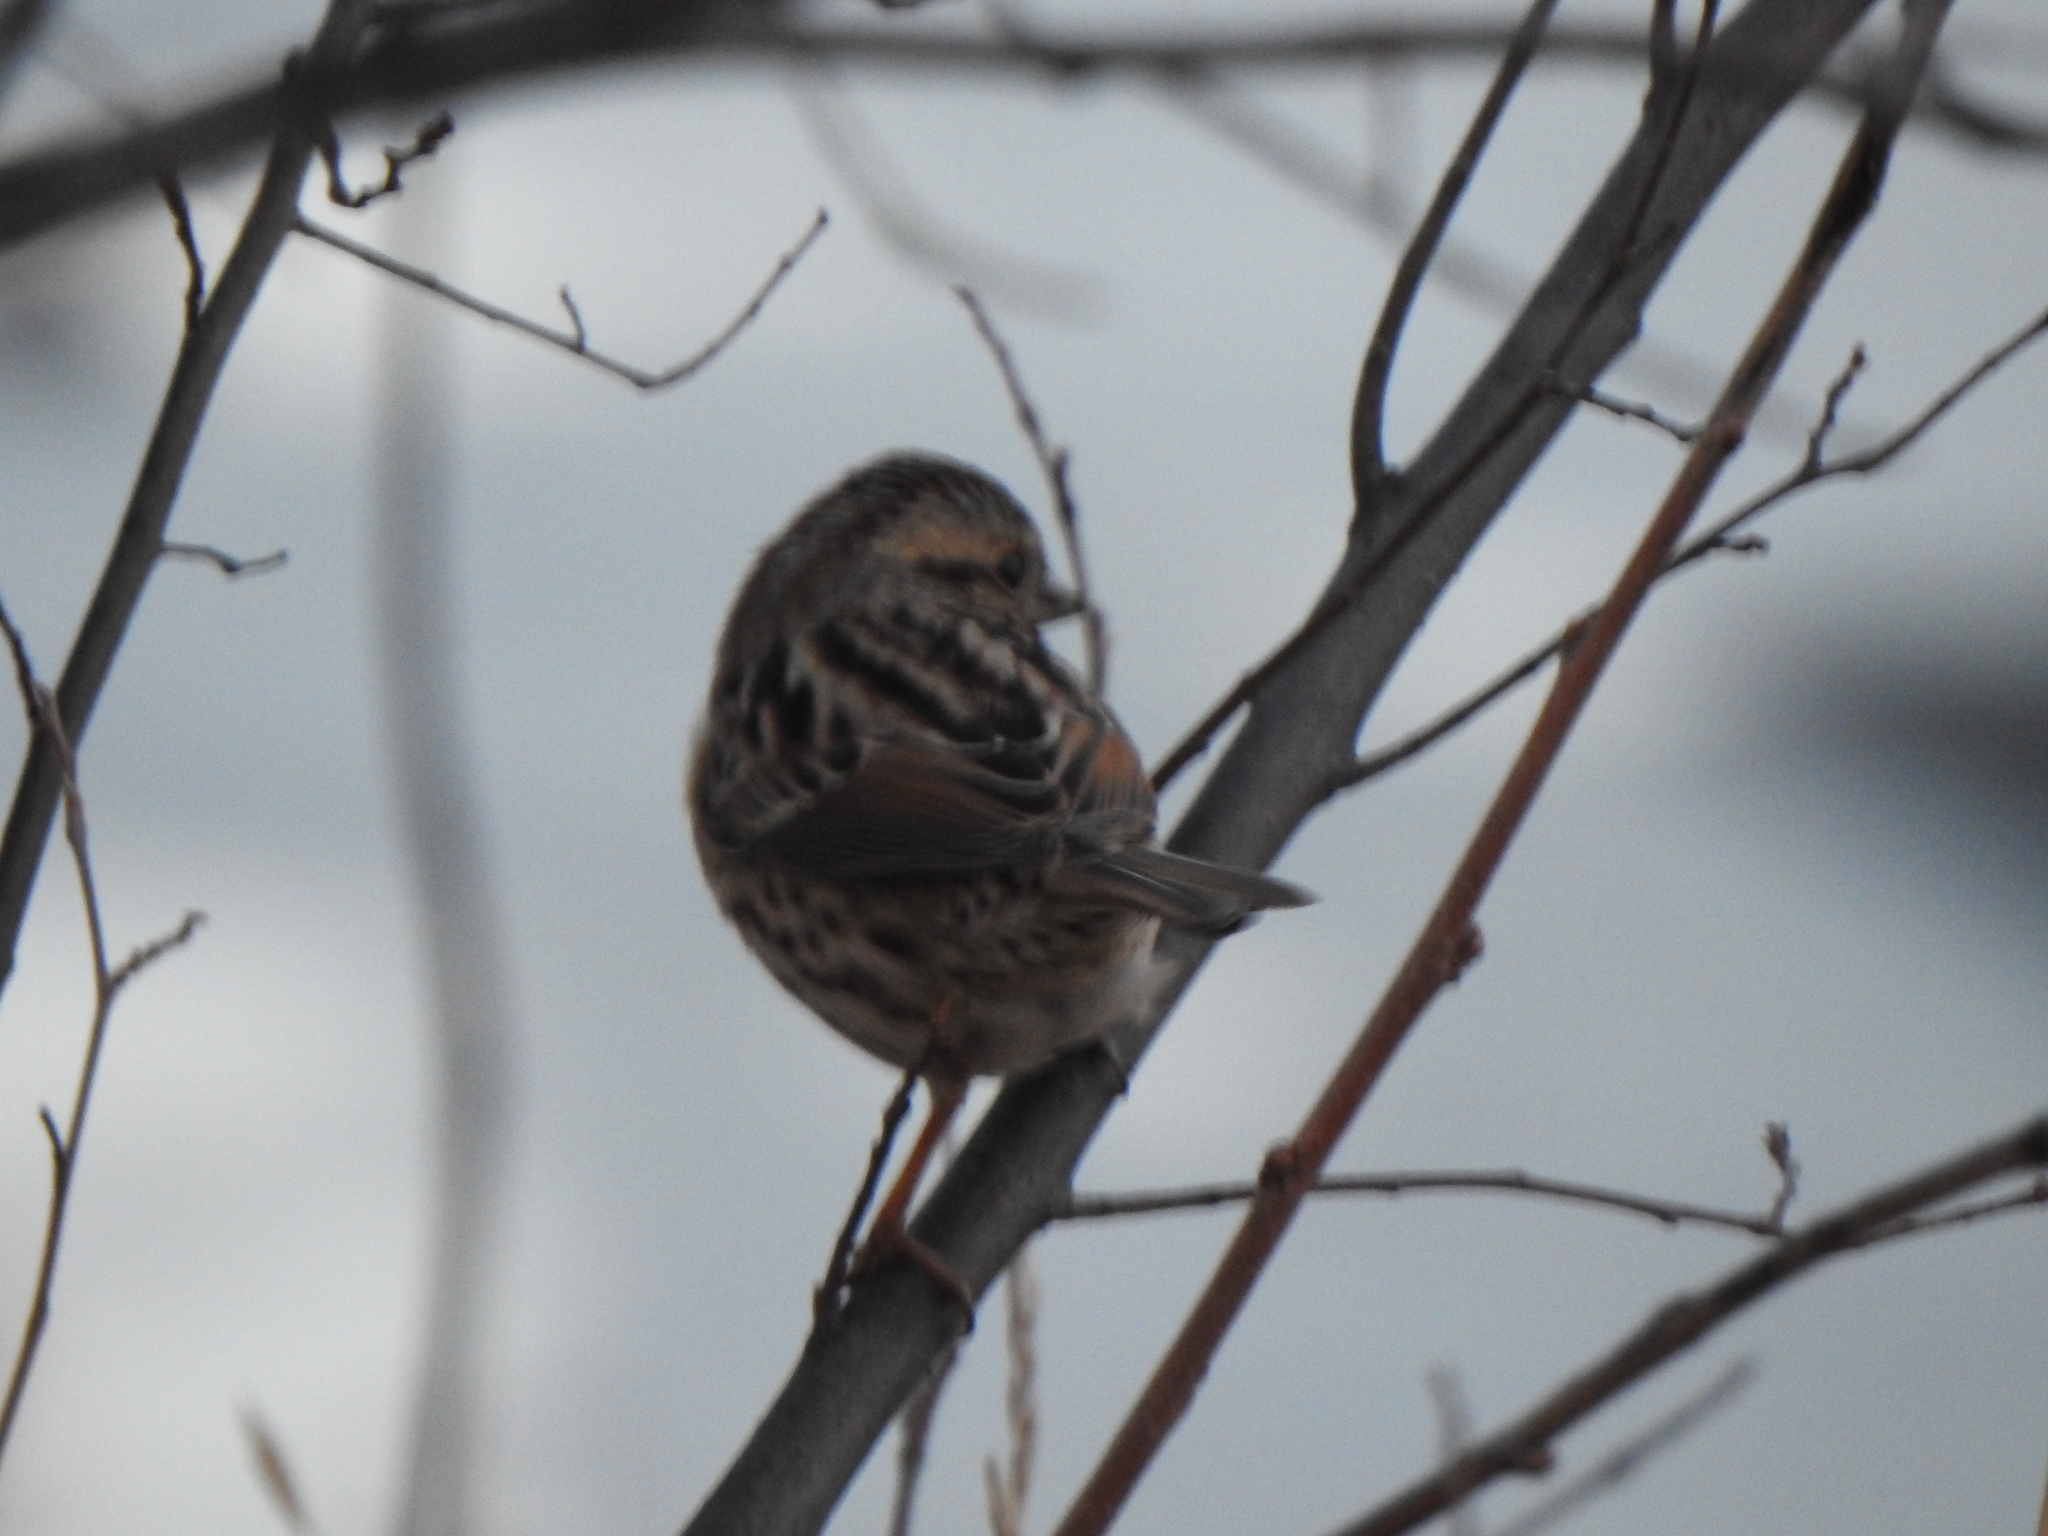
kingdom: Animalia
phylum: Chordata
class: Aves
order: Passeriformes
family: Passerellidae
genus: Melospiza
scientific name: Melospiza melodia
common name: Song sparrow
